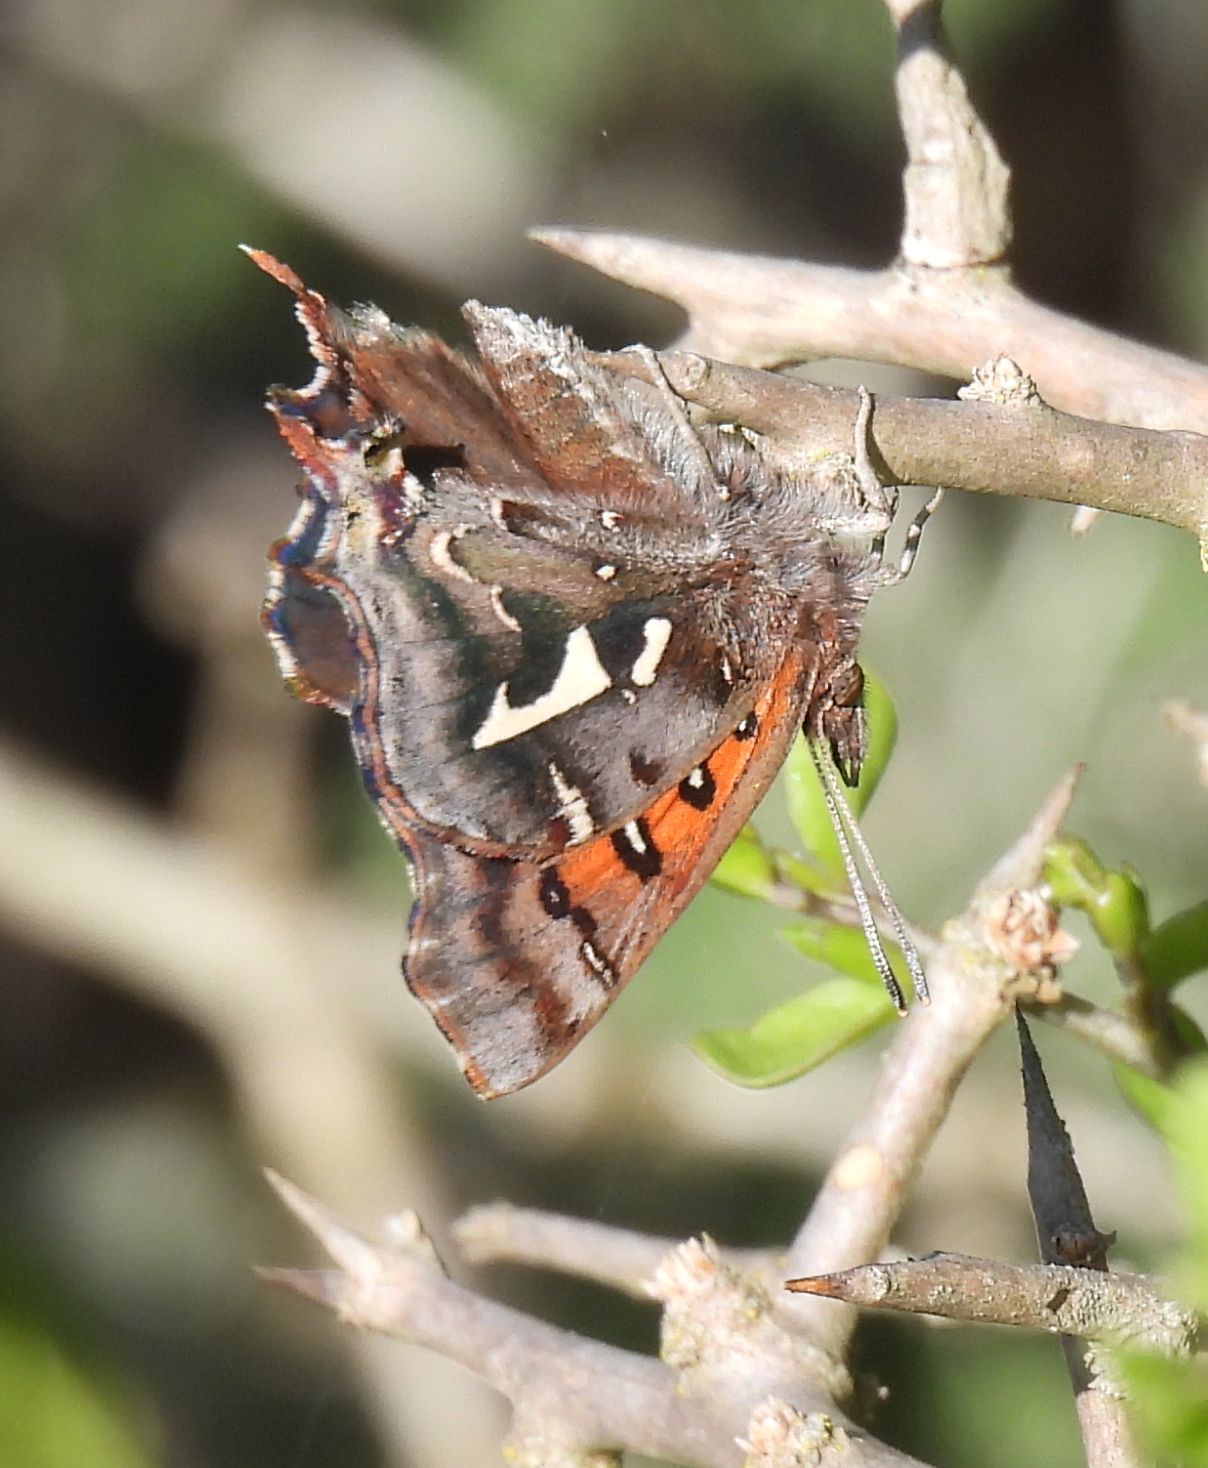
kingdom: Animalia
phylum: Arthropoda
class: Insecta
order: Lepidoptera
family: Lycaenidae
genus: Phasis
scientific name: Phasis thero
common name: Silver arrowhead
